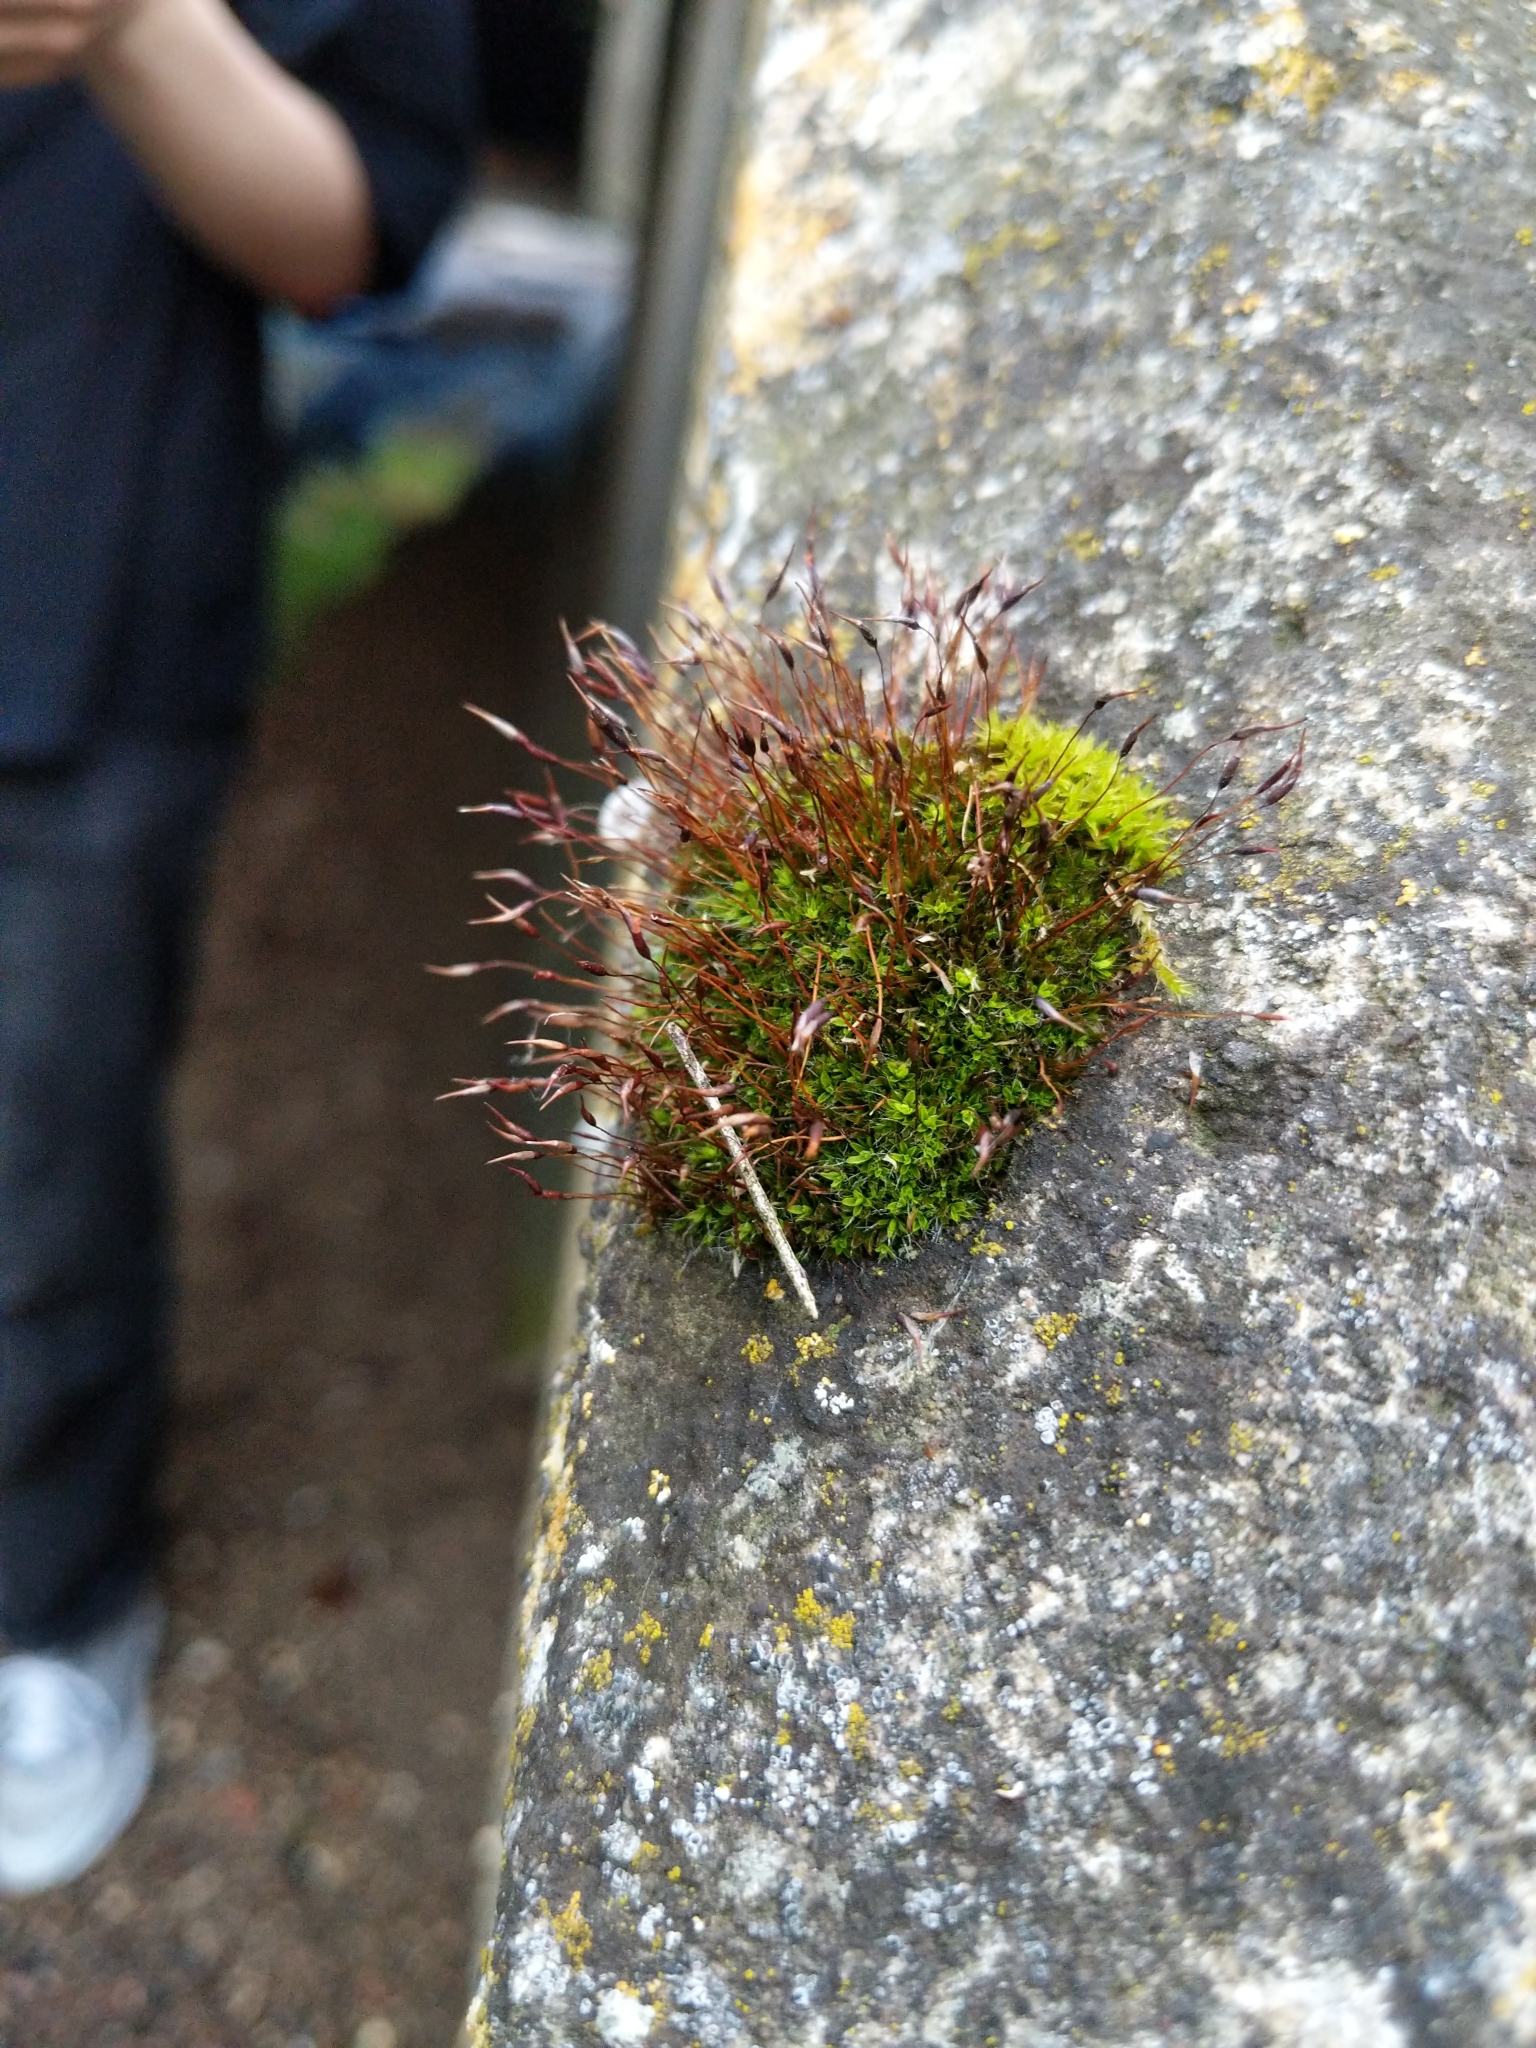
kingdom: Plantae
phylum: Bryophyta
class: Bryopsida
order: Pottiales
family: Pottiaceae
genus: Tortula
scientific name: Tortula muralis
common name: Wall screw-moss
